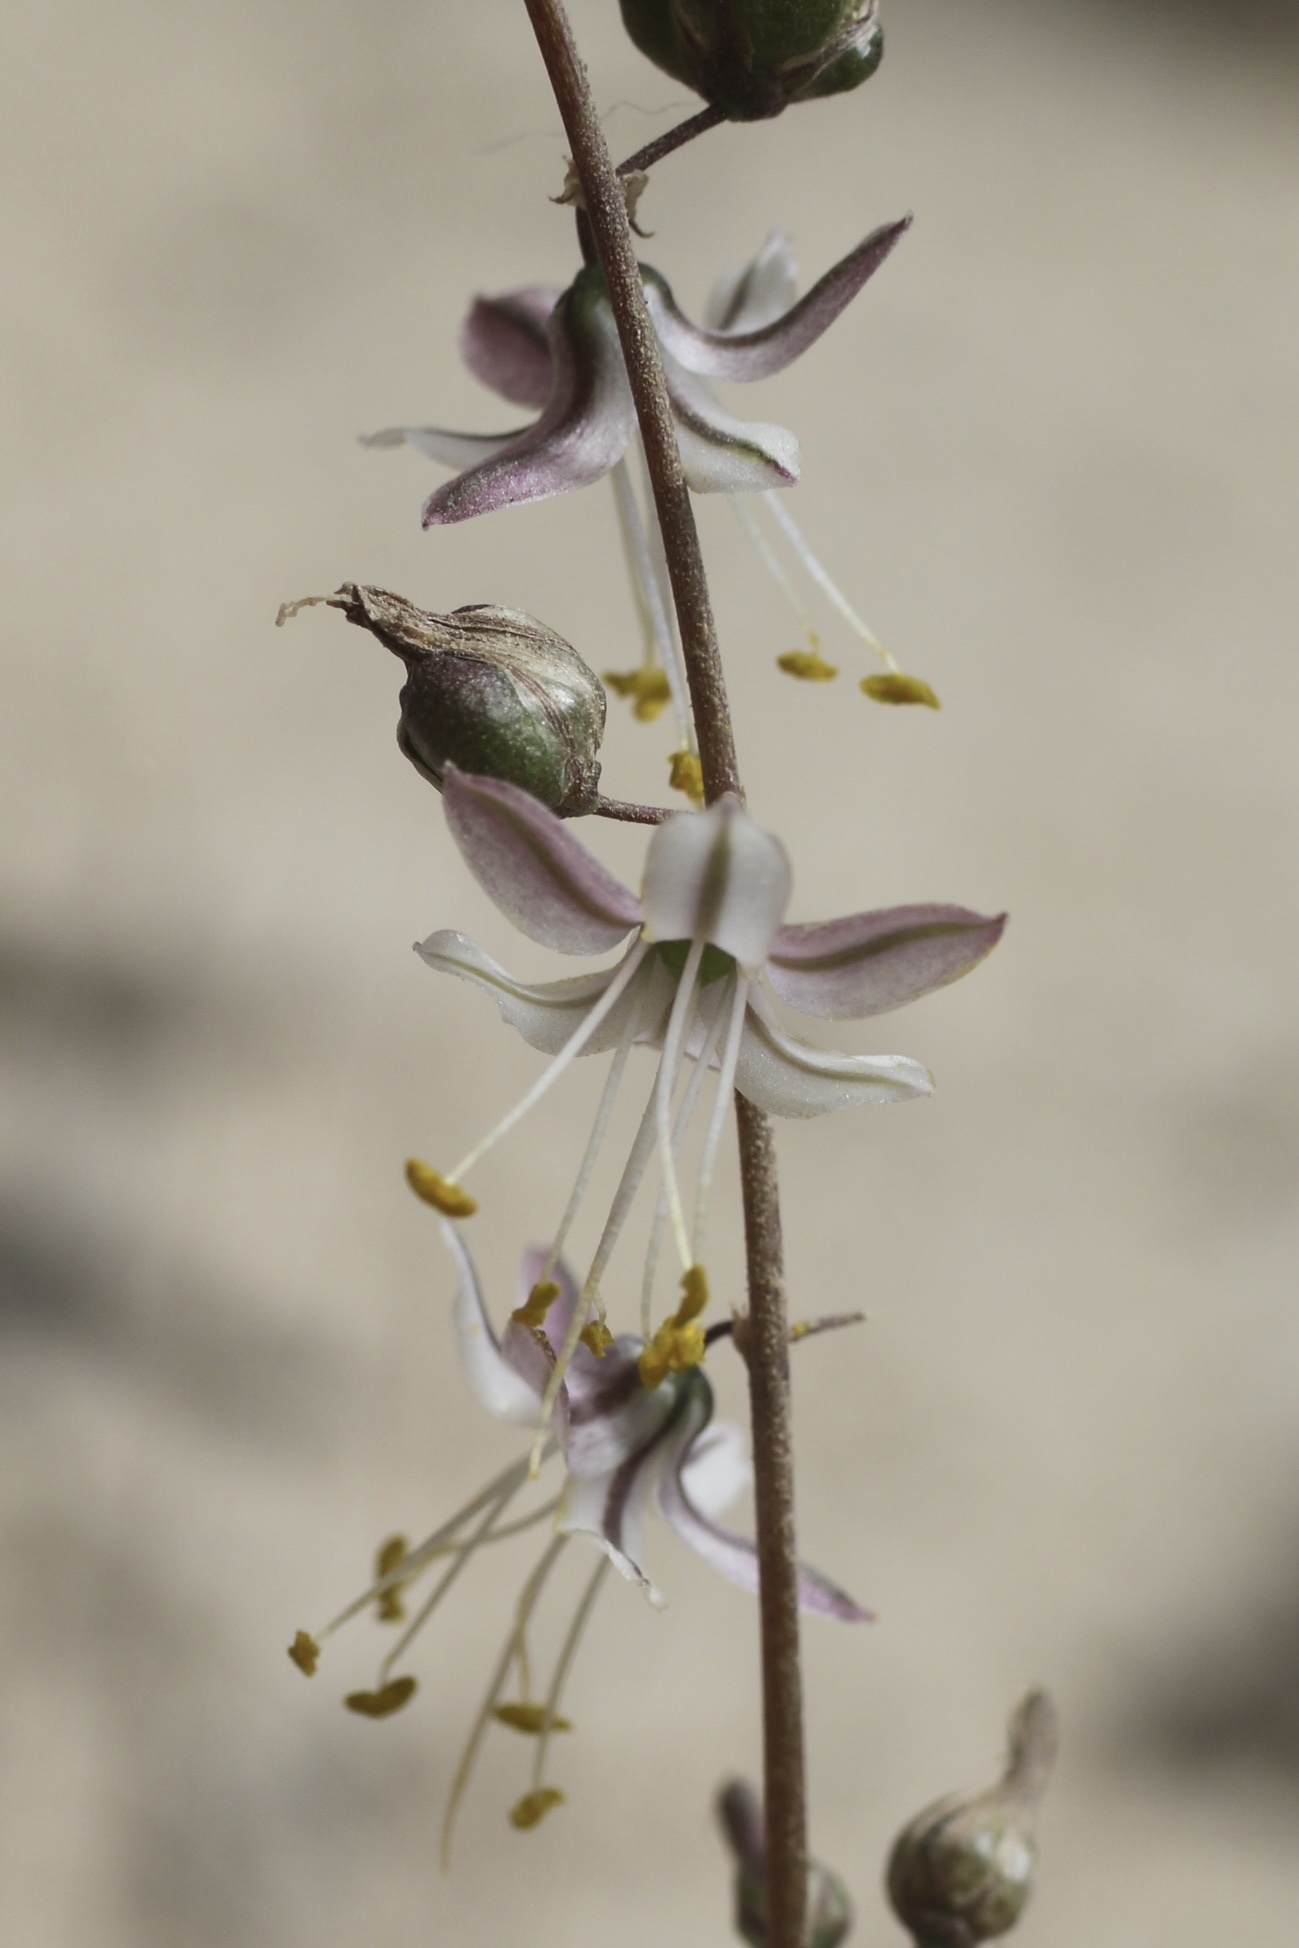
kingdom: Plantae
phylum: Tracheophyta
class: Liliopsida
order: Asparagales
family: Asparagaceae
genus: Hooveria
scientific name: Hooveria parviflora
